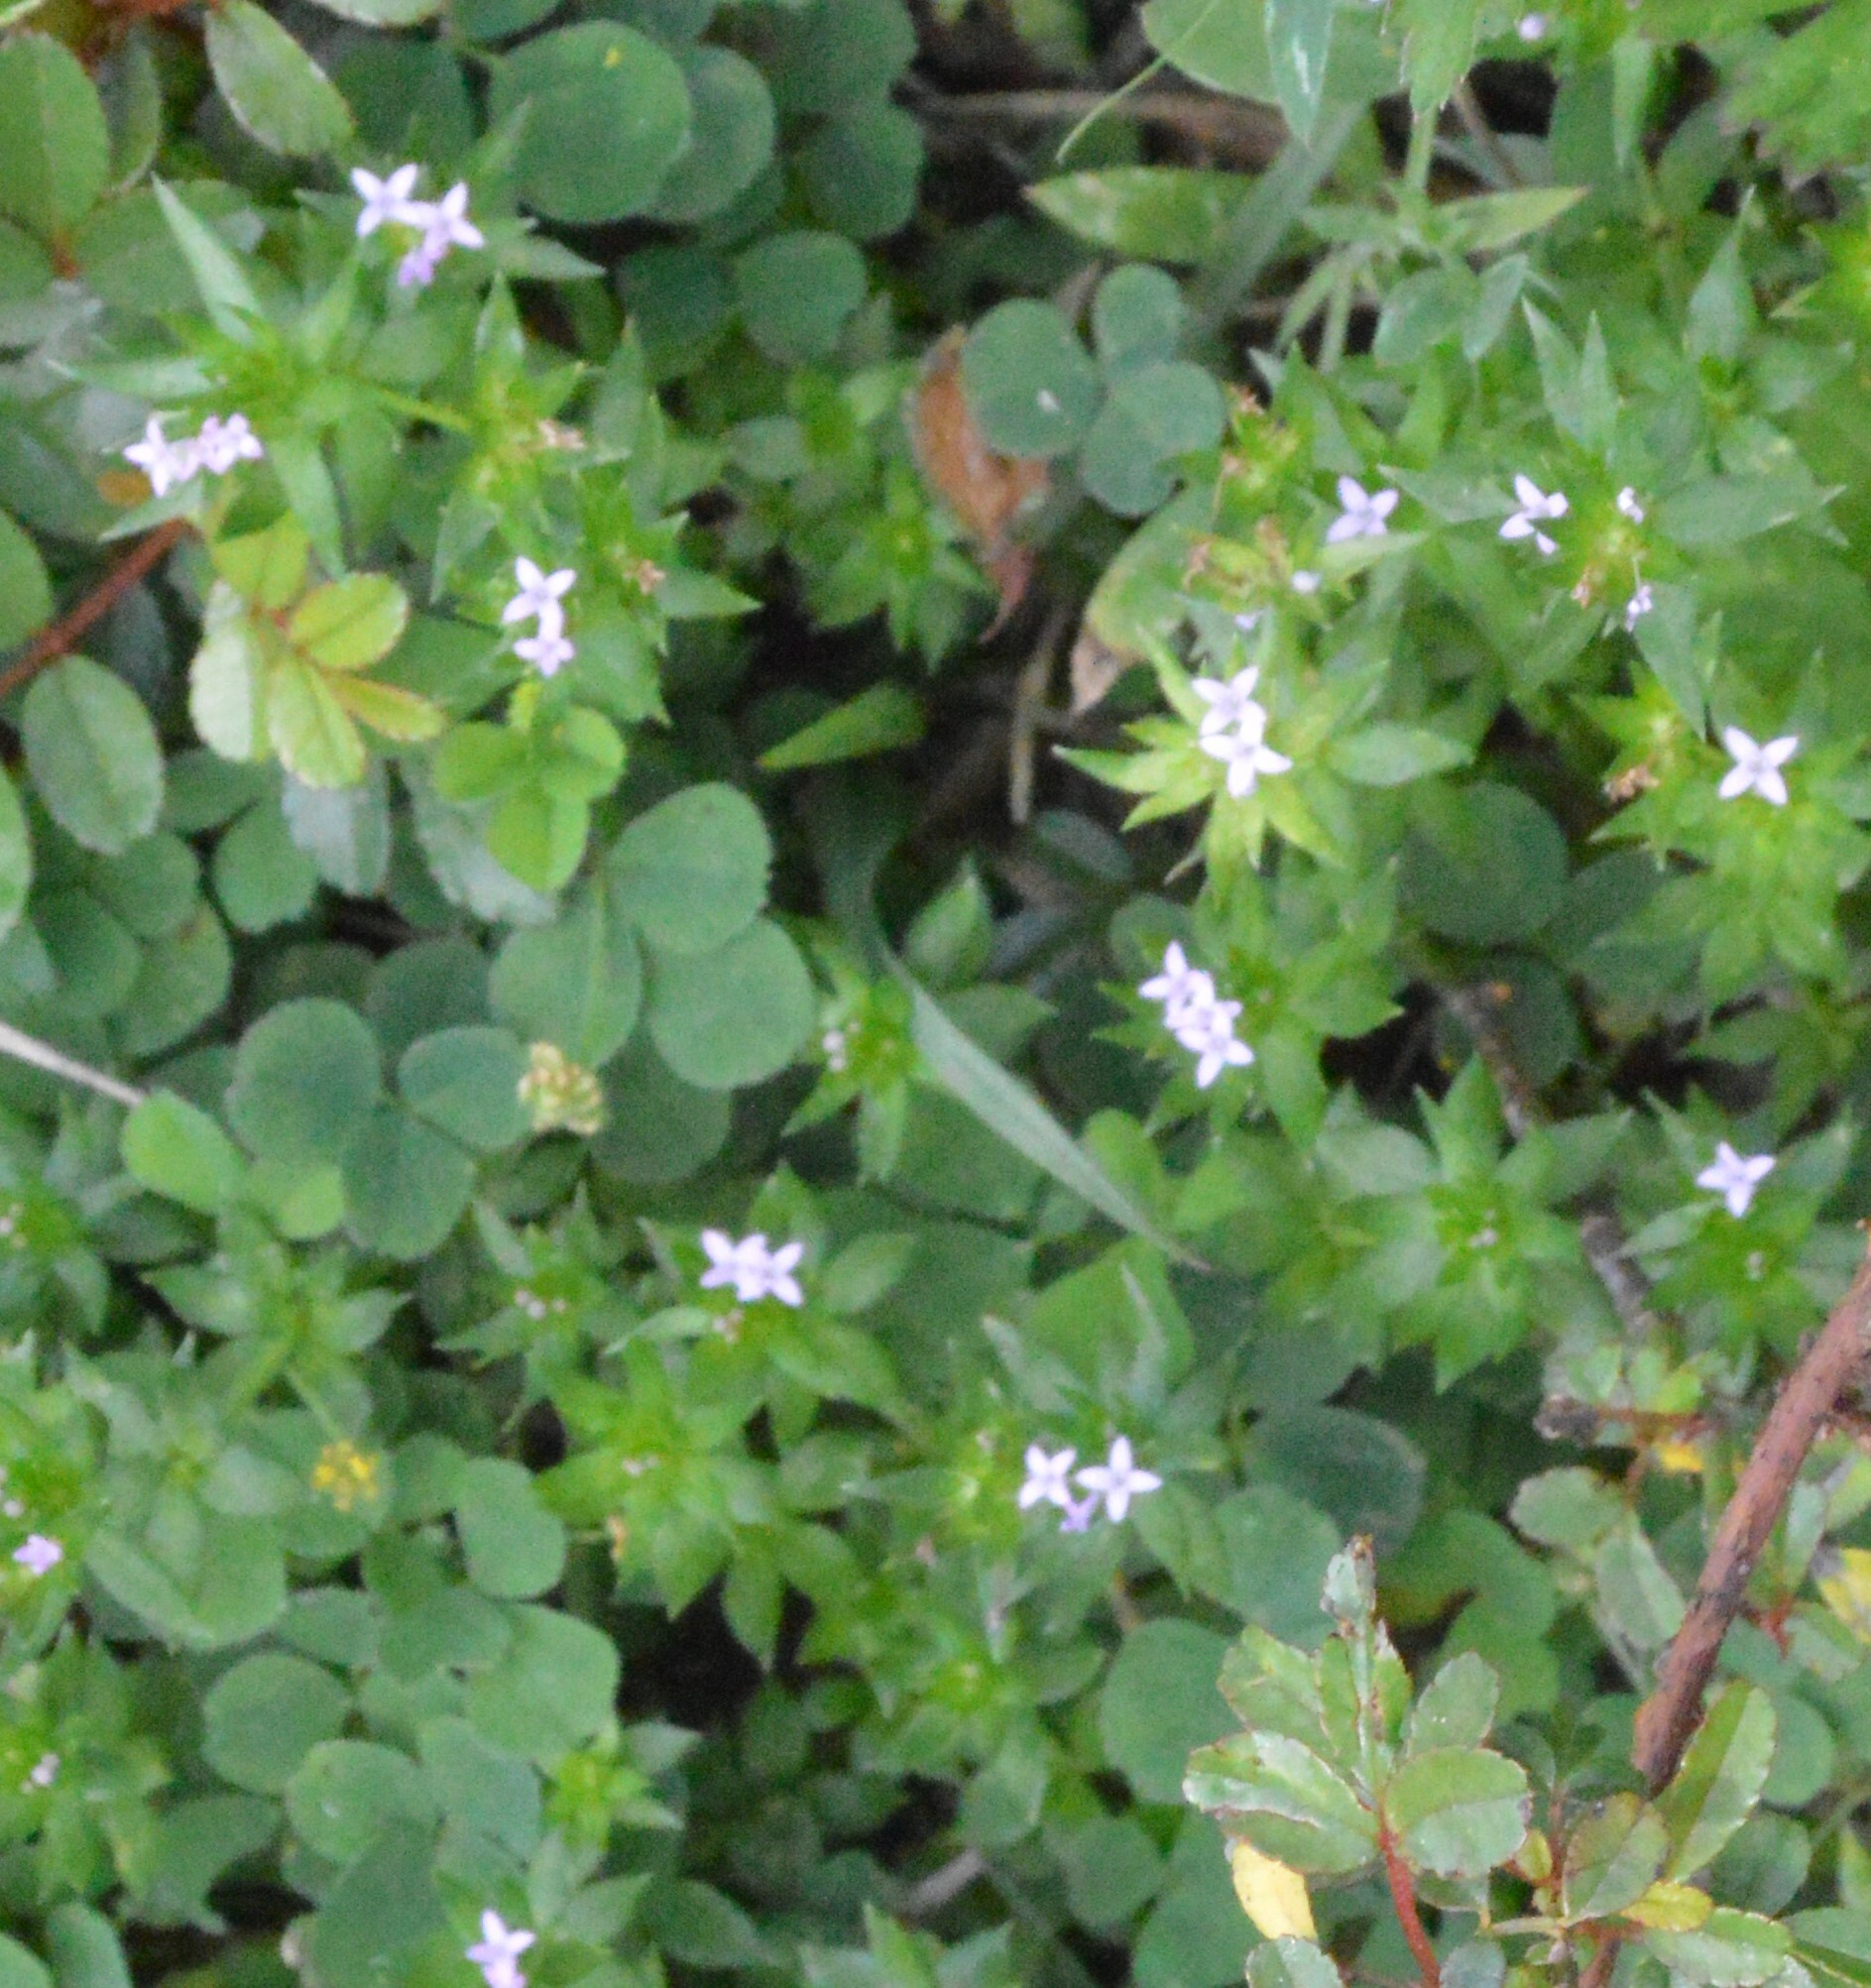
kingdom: Plantae
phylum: Tracheophyta
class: Magnoliopsida
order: Gentianales
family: Rubiaceae
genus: Sherardia
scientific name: Sherardia arvensis
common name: Field madder
